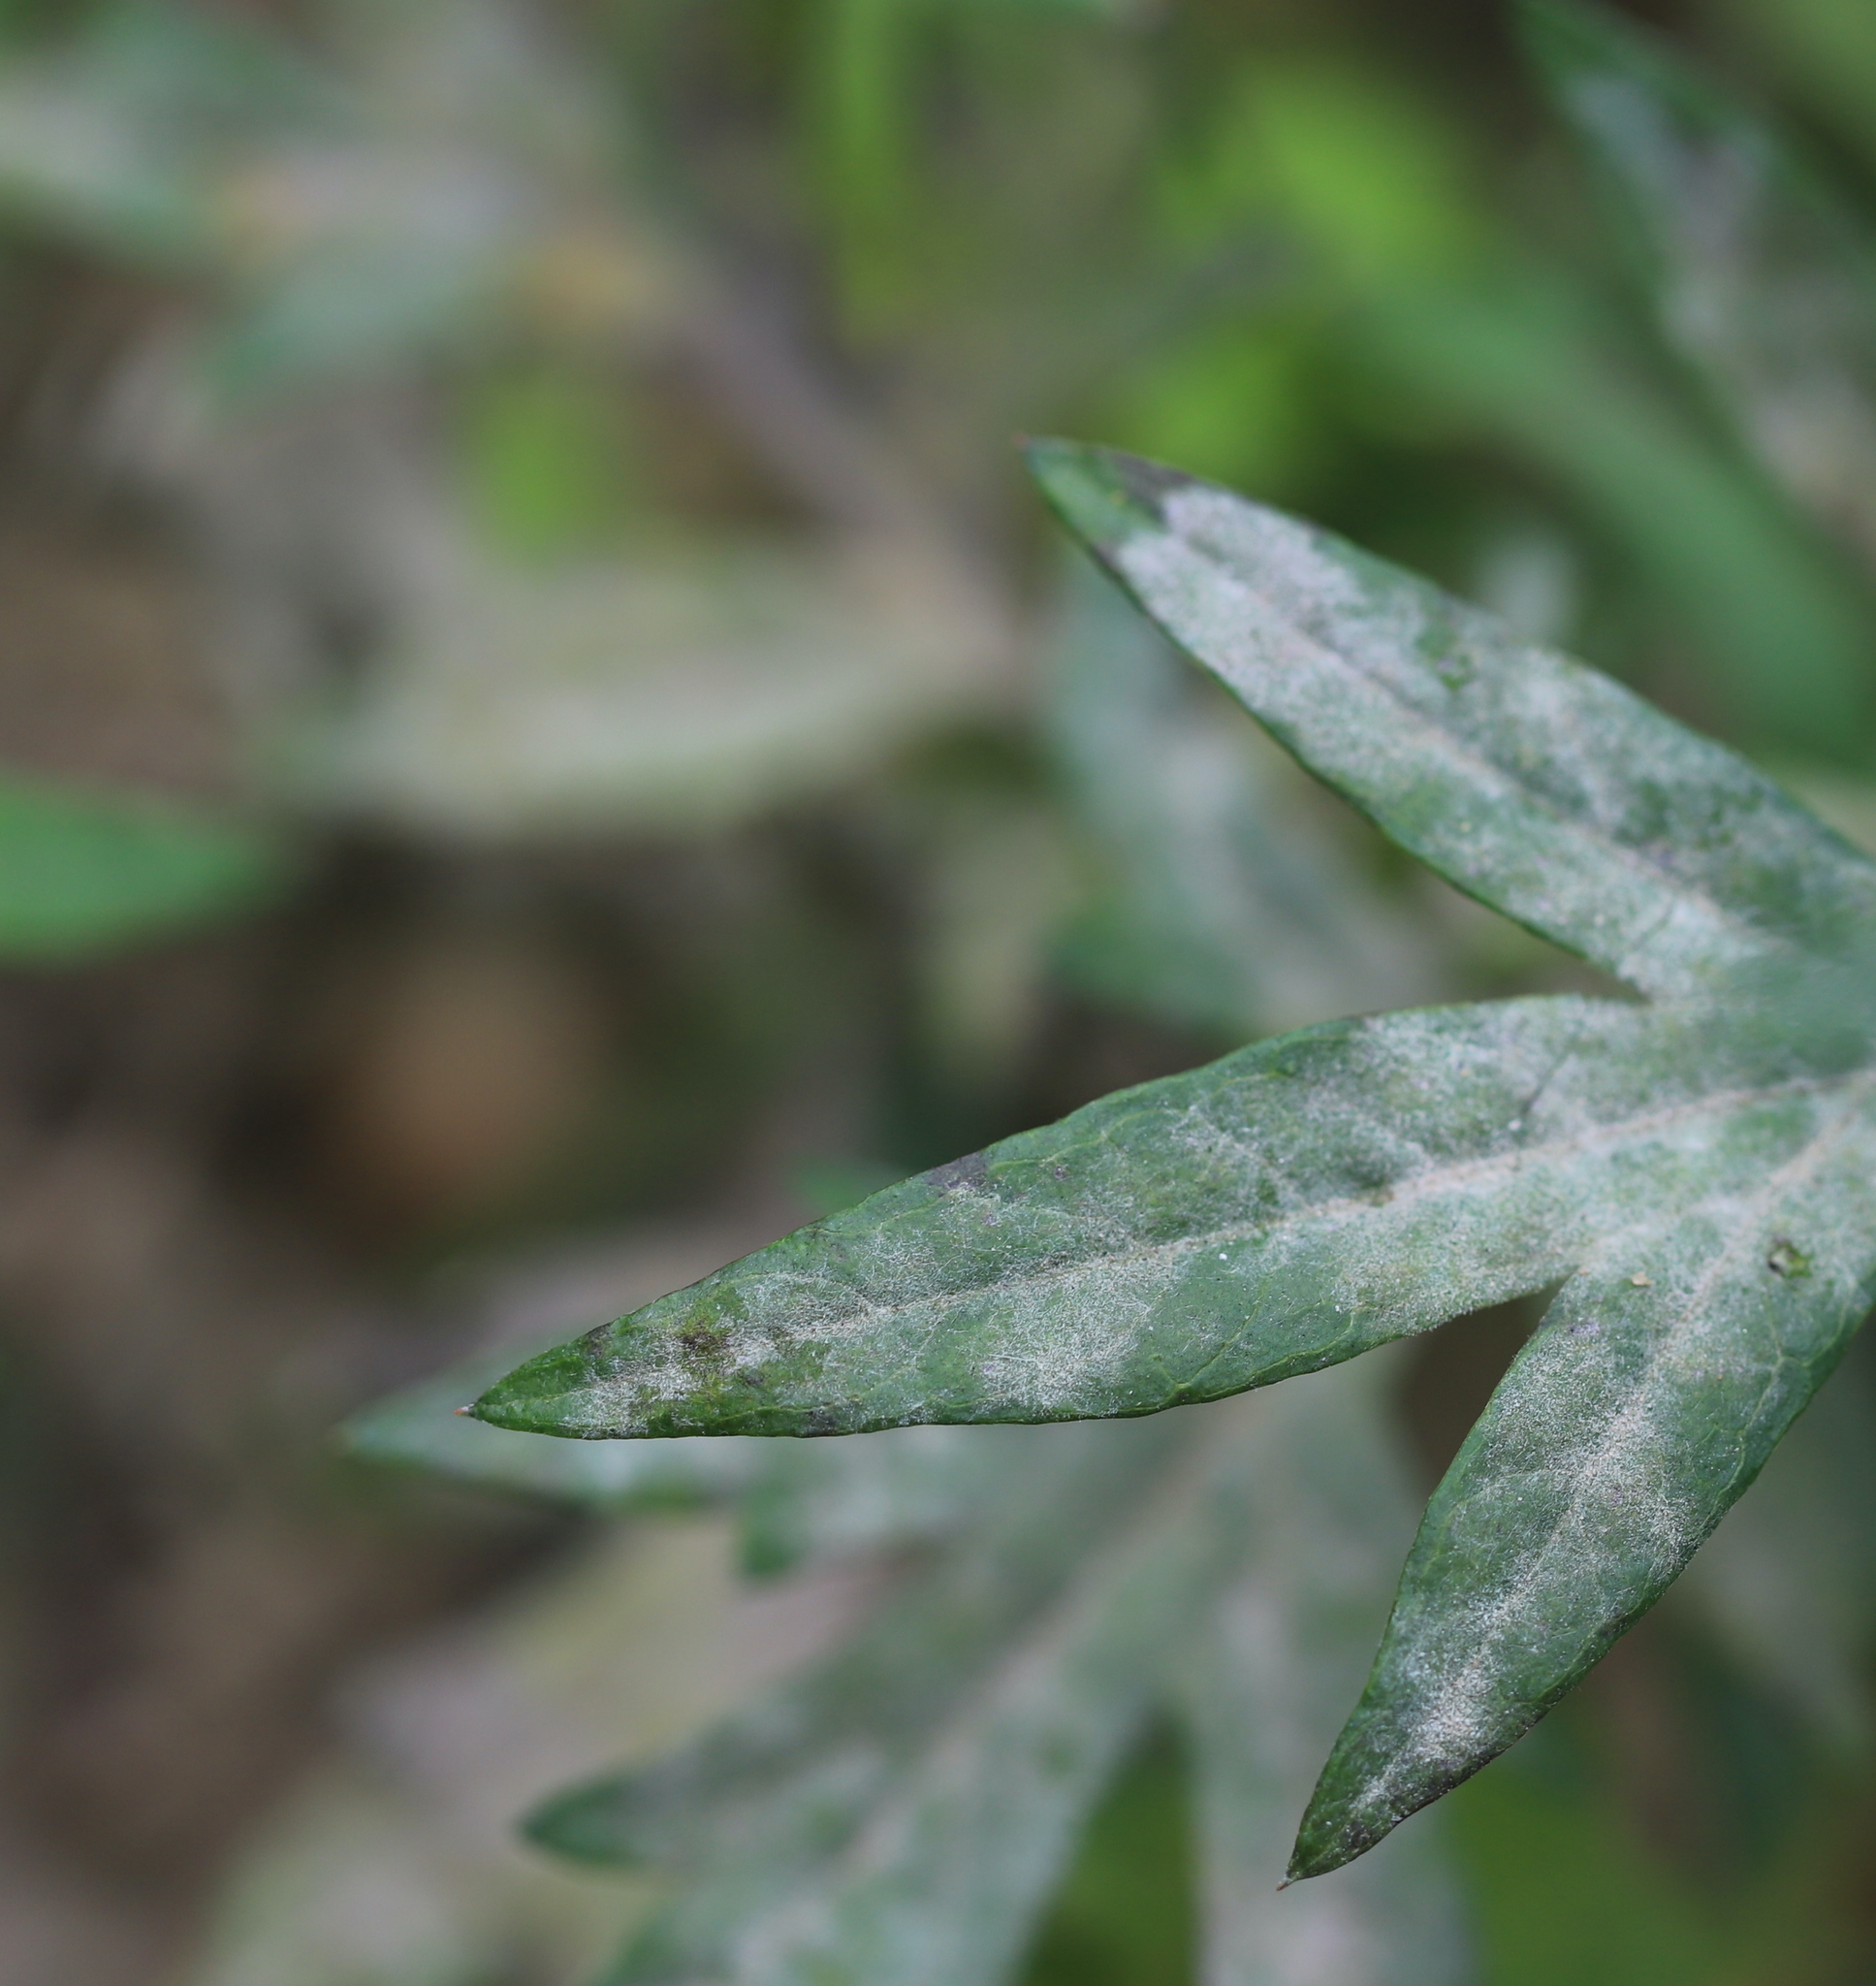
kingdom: Fungi
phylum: Ascomycota
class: Leotiomycetes
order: Helotiales
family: Erysiphaceae
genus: Golovinomyces
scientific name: Golovinomyces artemisiae
